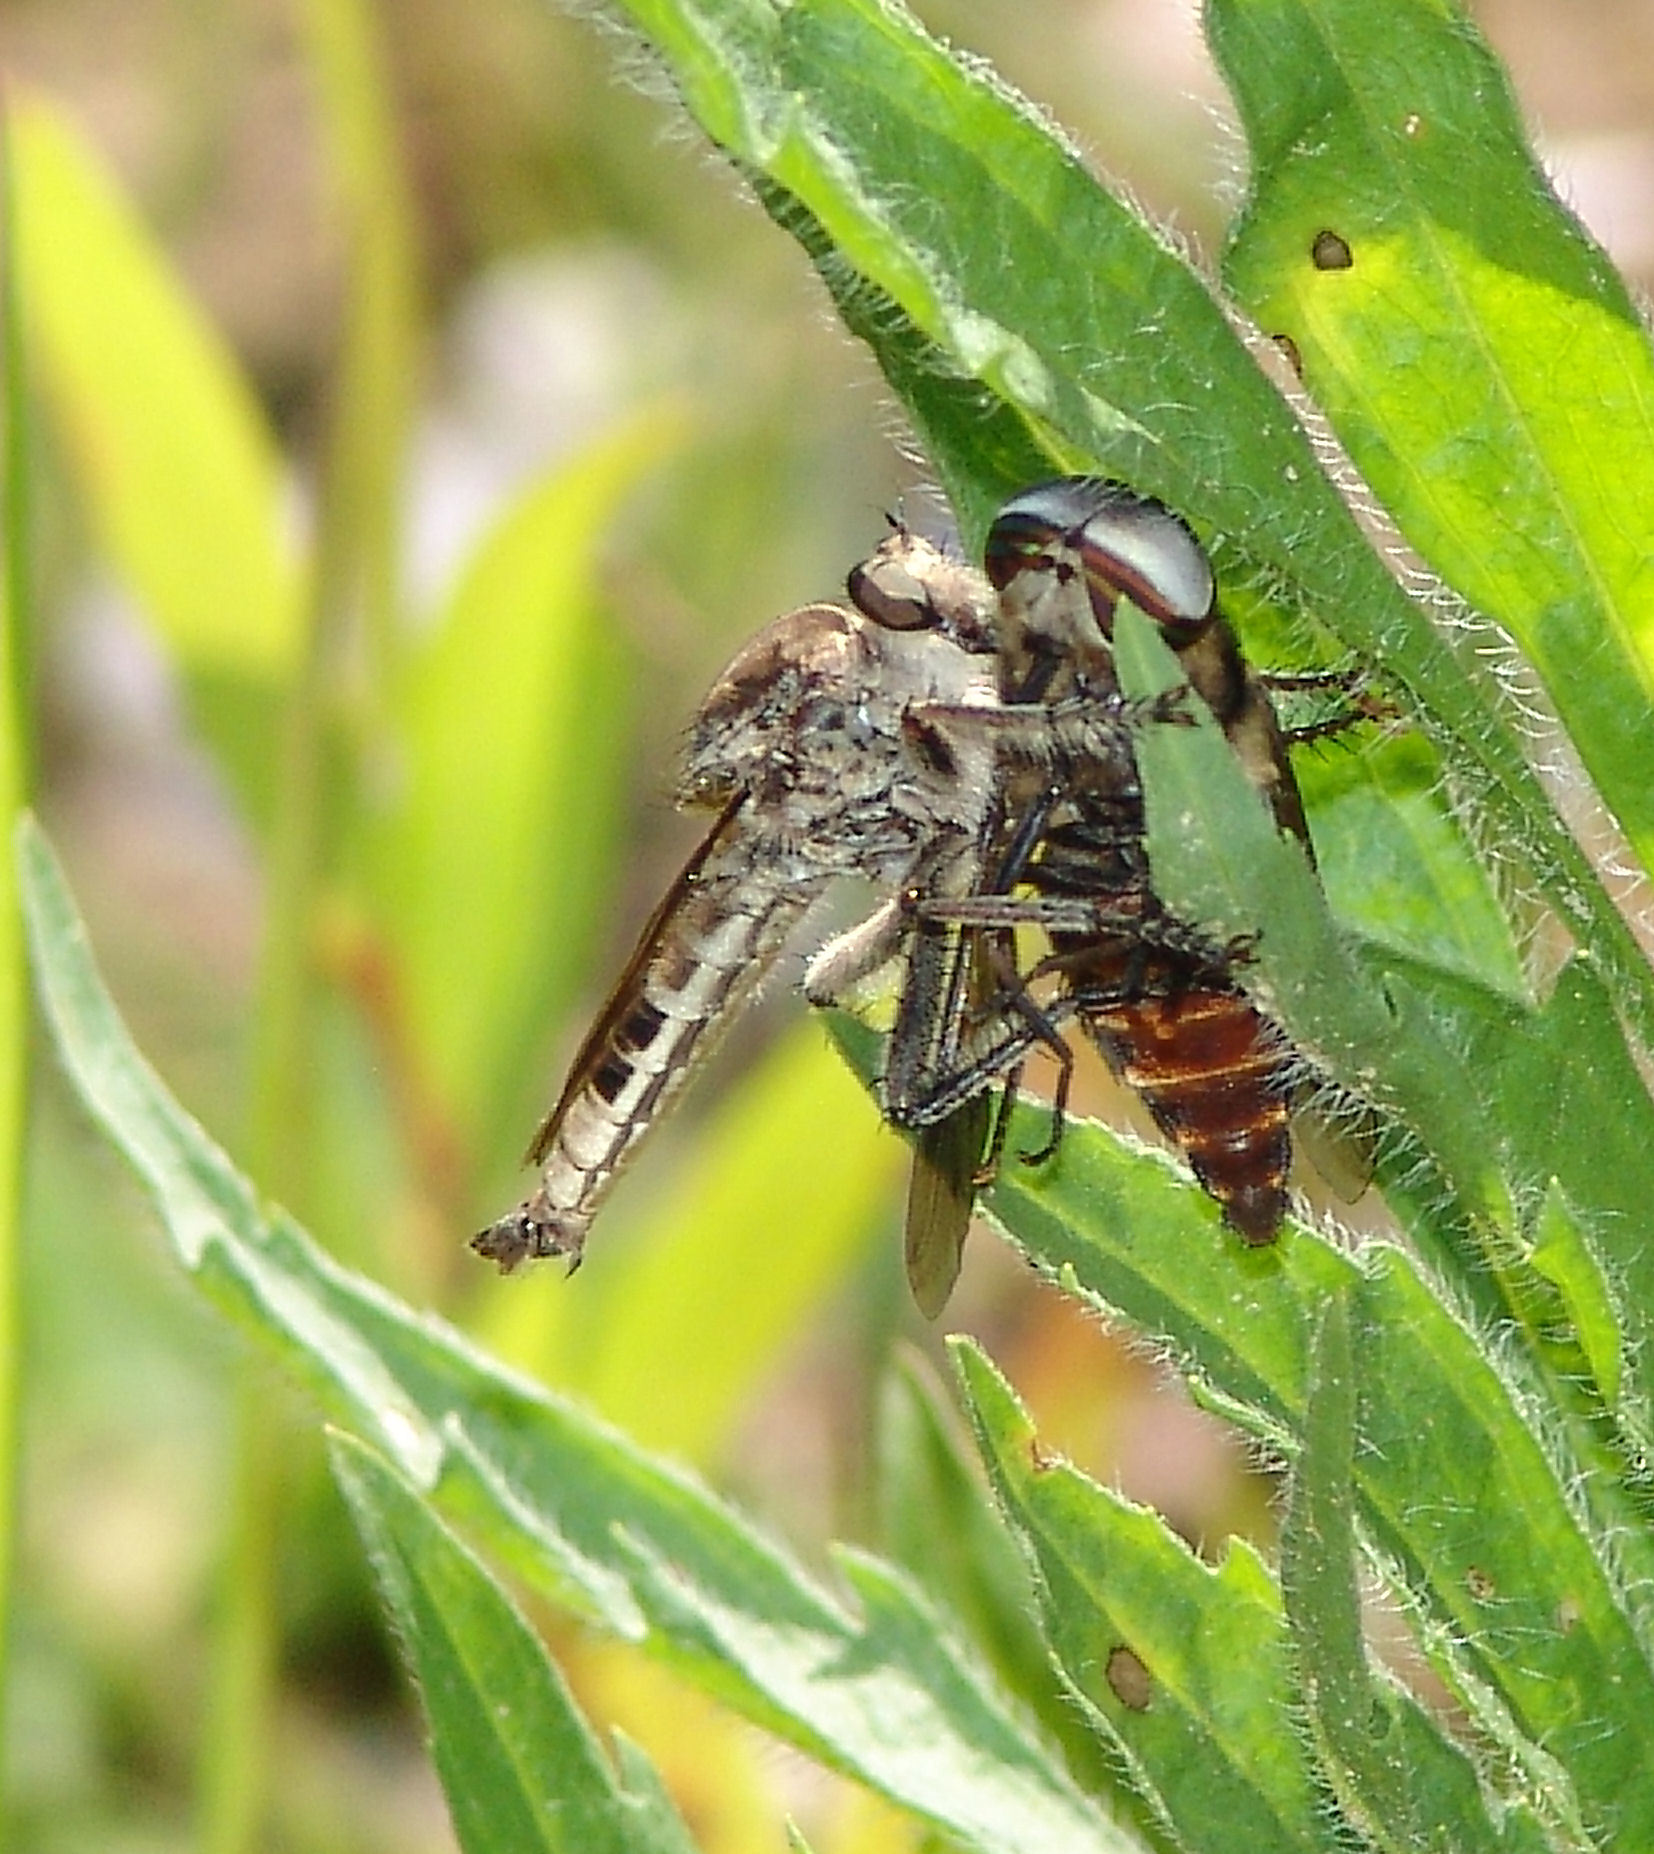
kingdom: Animalia
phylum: Arthropoda
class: Insecta
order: Diptera
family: Asilidae
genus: Triorla
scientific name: Triorla interrupta
